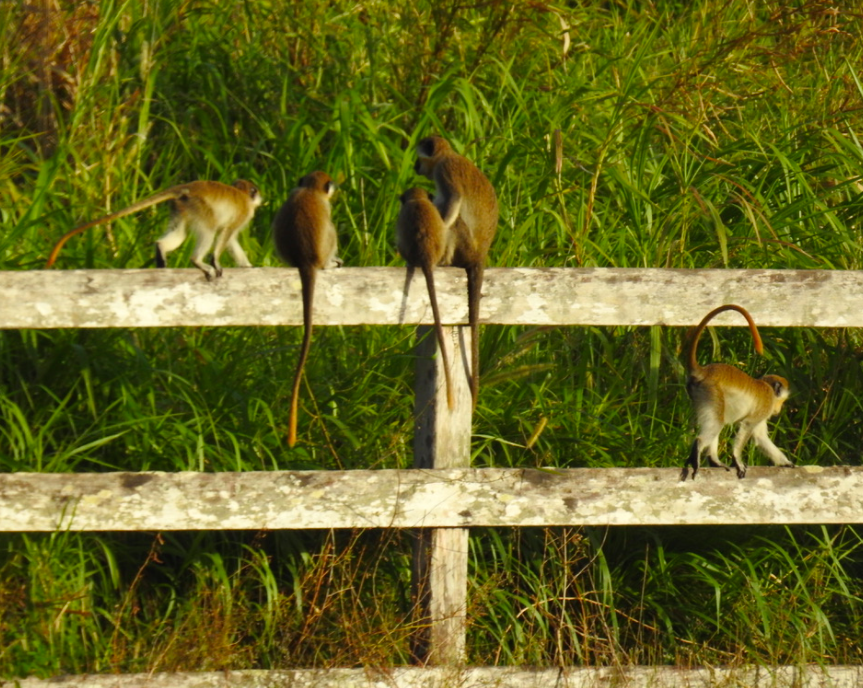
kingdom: Animalia
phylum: Chordata
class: Mammalia
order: Primates
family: Cercopithecidae
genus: Chlorocebus
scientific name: Chlorocebus sabaeus
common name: Green monkey
